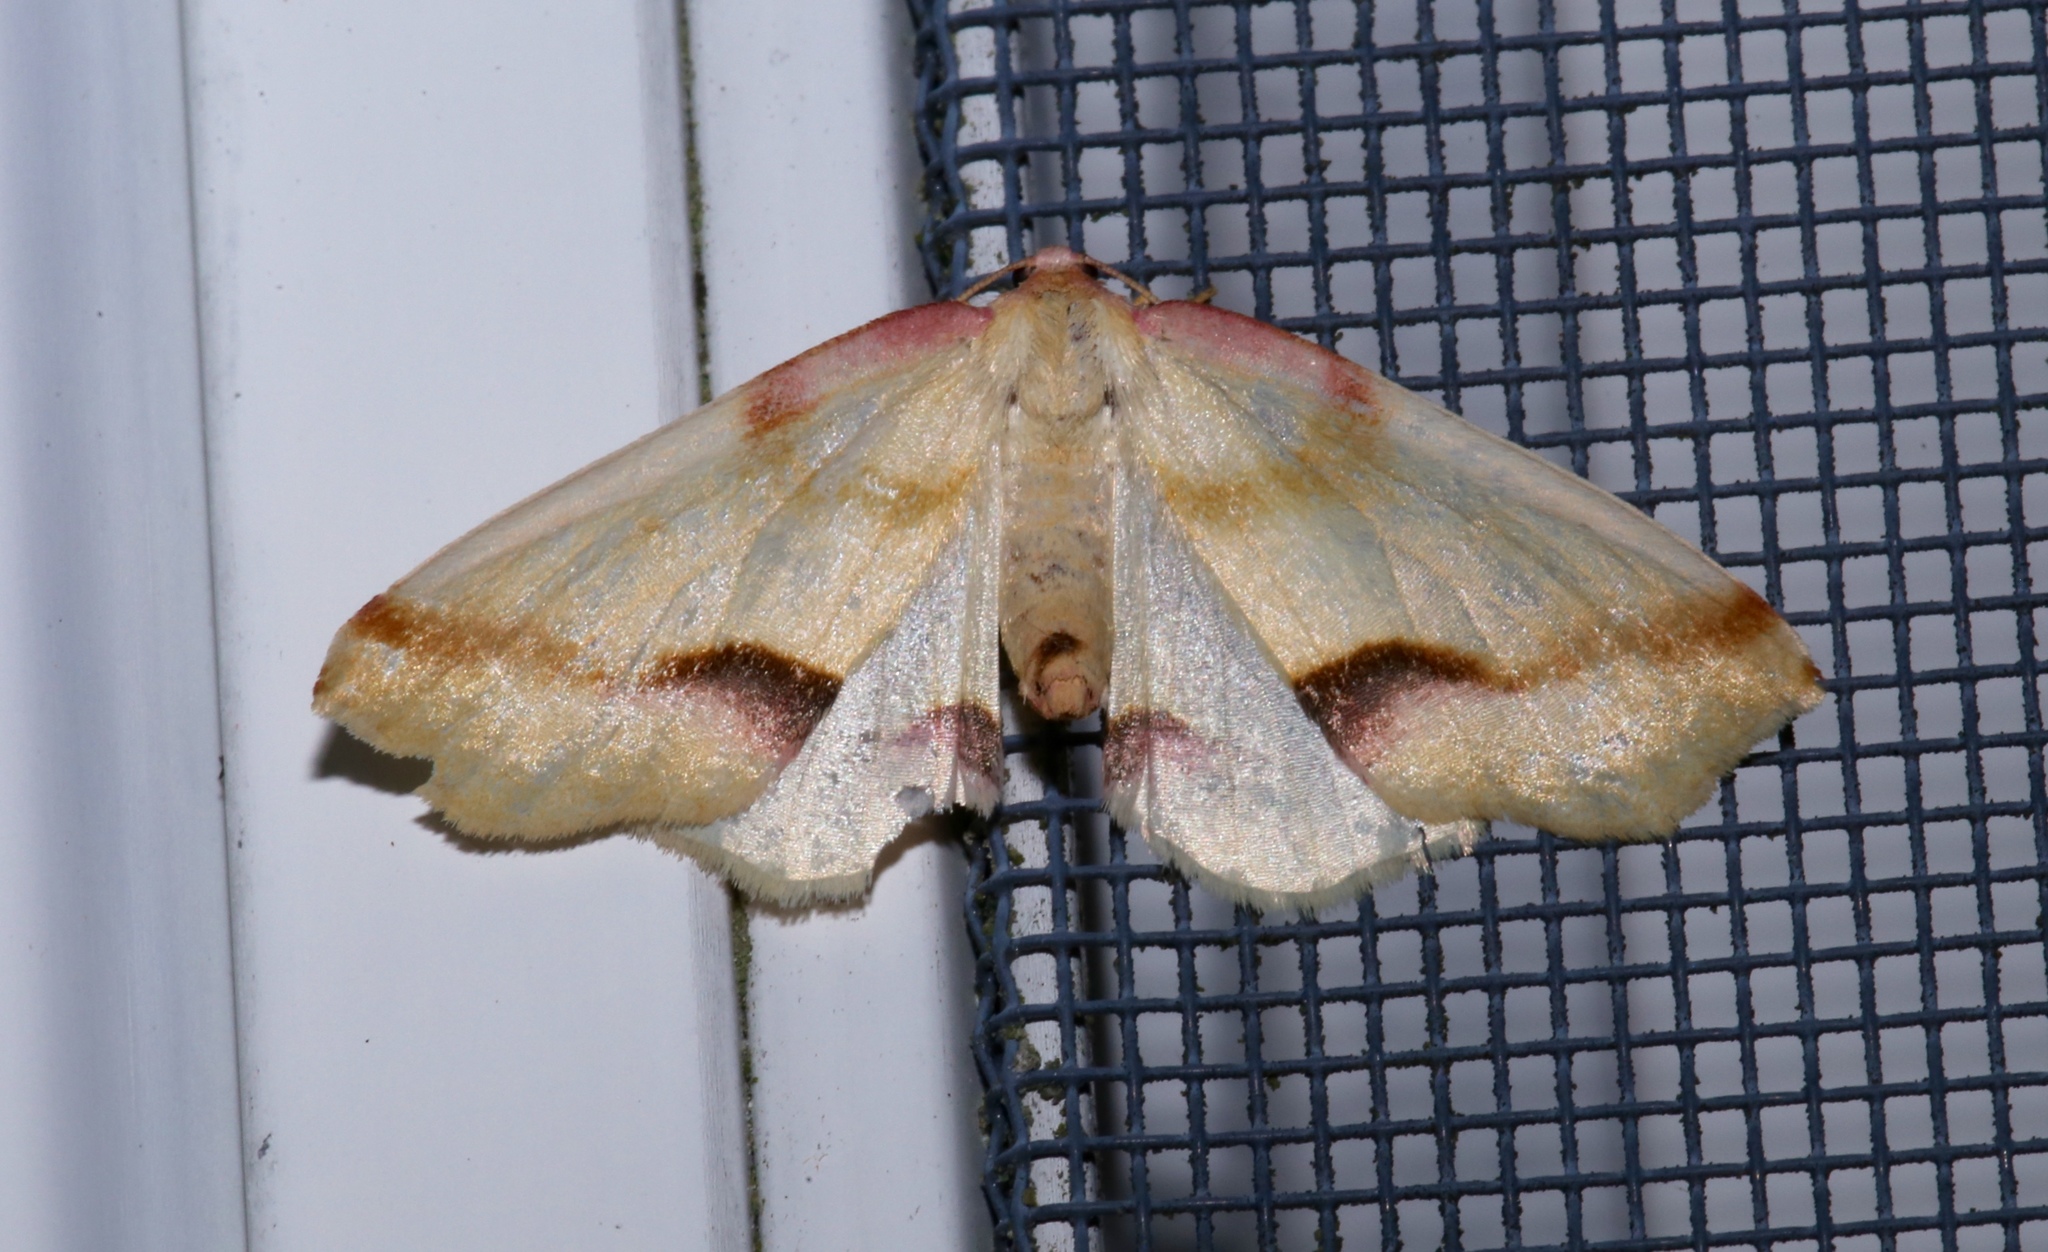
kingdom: Animalia
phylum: Arthropoda
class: Insecta
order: Lepidoptera
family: Geometridae
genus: Plagodis
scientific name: Plagodis serinaria
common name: Lemon plagodis
